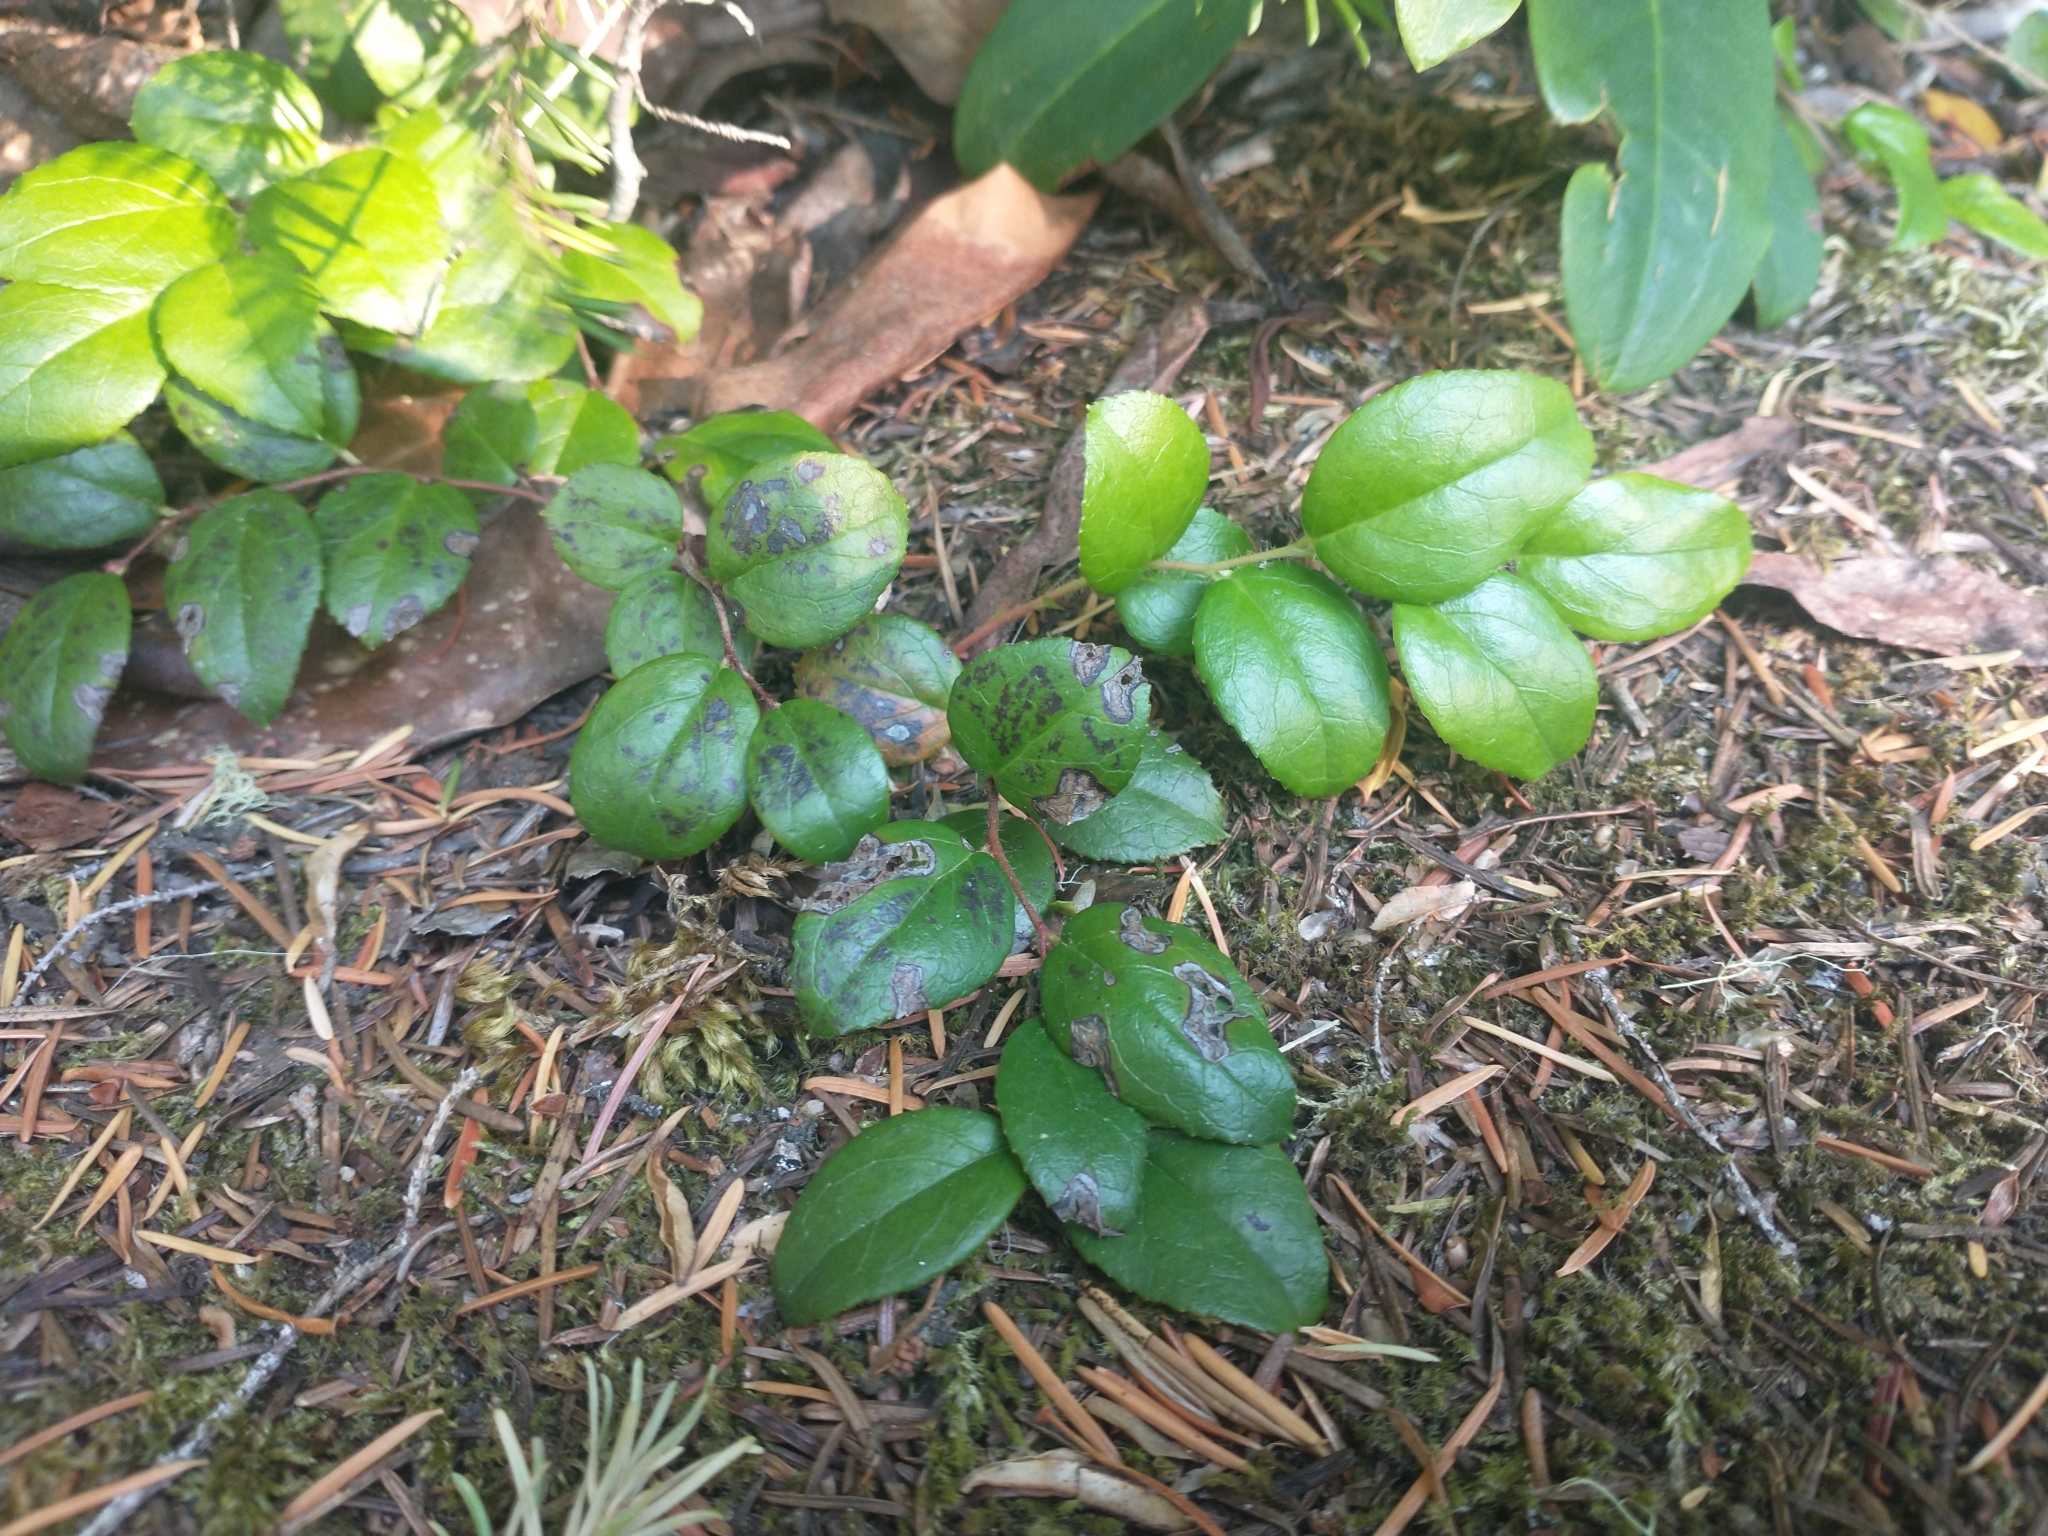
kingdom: Plantae
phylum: Tracheophyta
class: Magnoliopsida
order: Ericales
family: Ericaceae
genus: Gaultheria
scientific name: Gaultheria ovatifolia
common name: Oregon wintergreen
